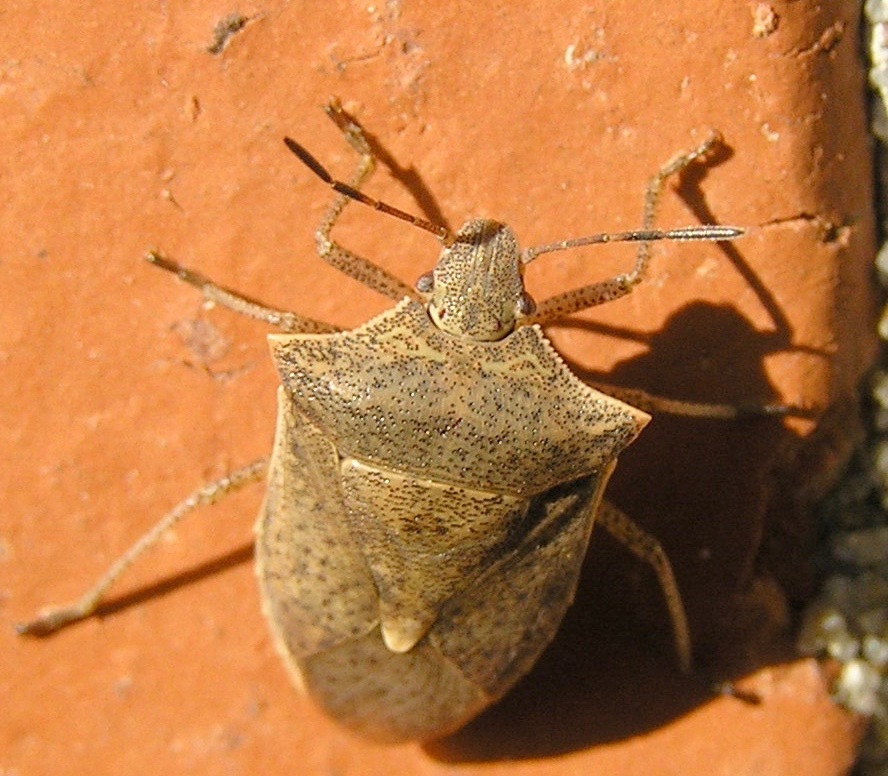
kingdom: Animalia
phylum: Arthropoda
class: Insecta
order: Hemiptera
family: Pentatomidae
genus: Euschistus
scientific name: Euschistus variolarius
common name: Onespotted stink bug
